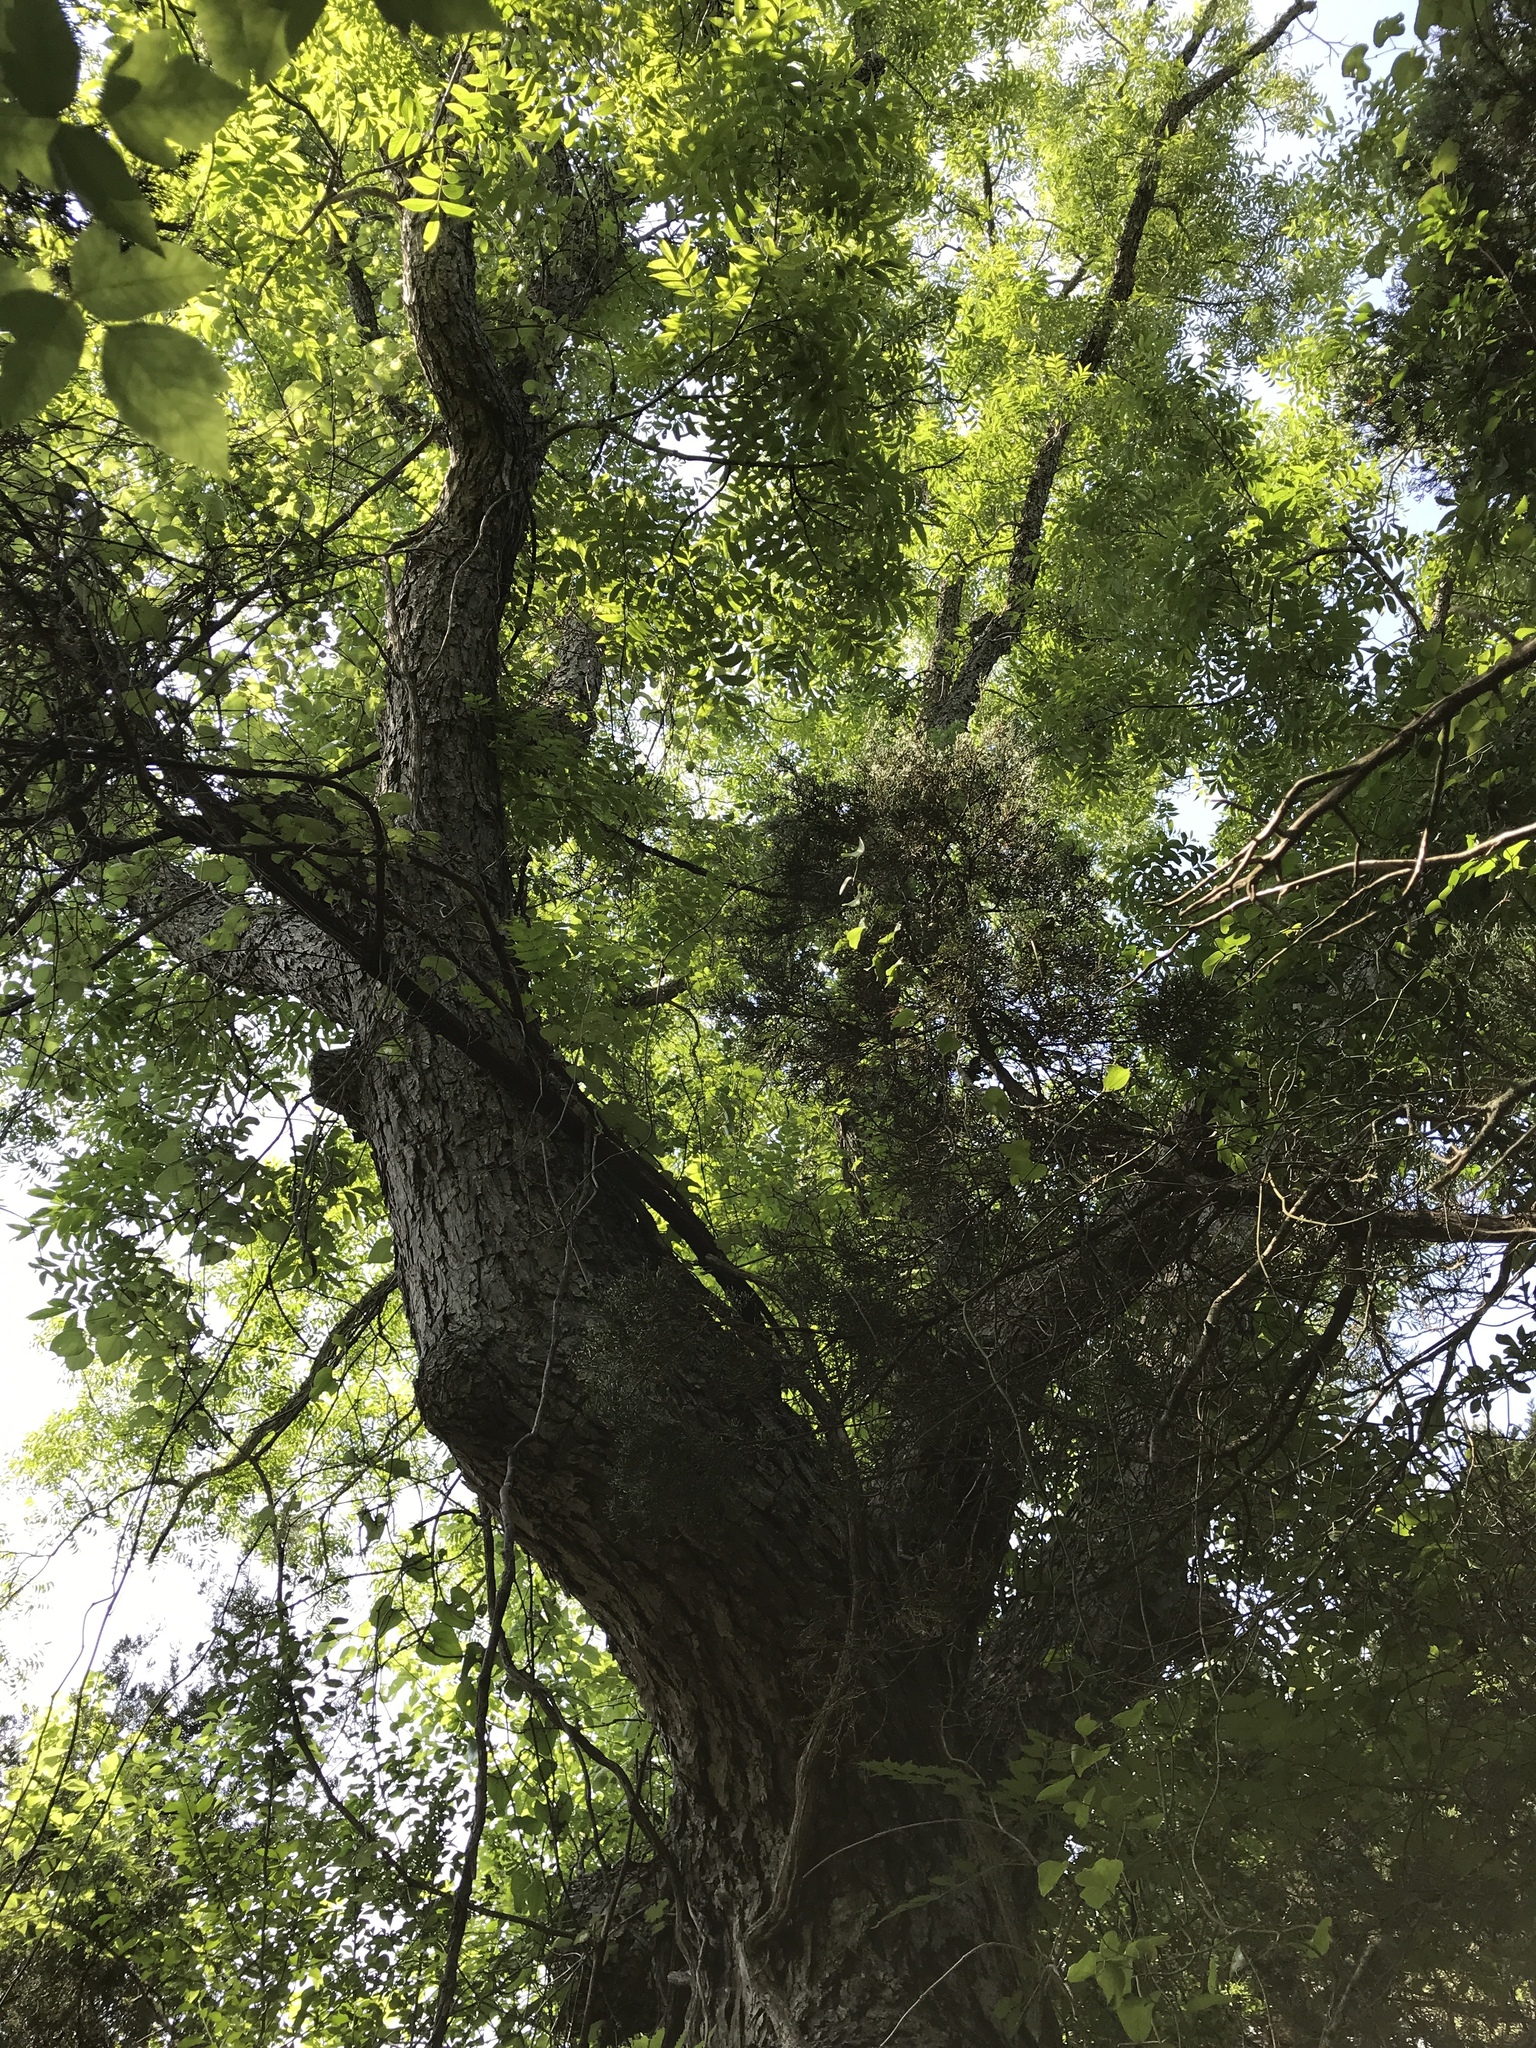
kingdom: Plantae
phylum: Tracheophyta
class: Magnoliopsida
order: Fagales
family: Juglandaceae
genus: Carya
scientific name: Carya illinoinensis
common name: Pecan
